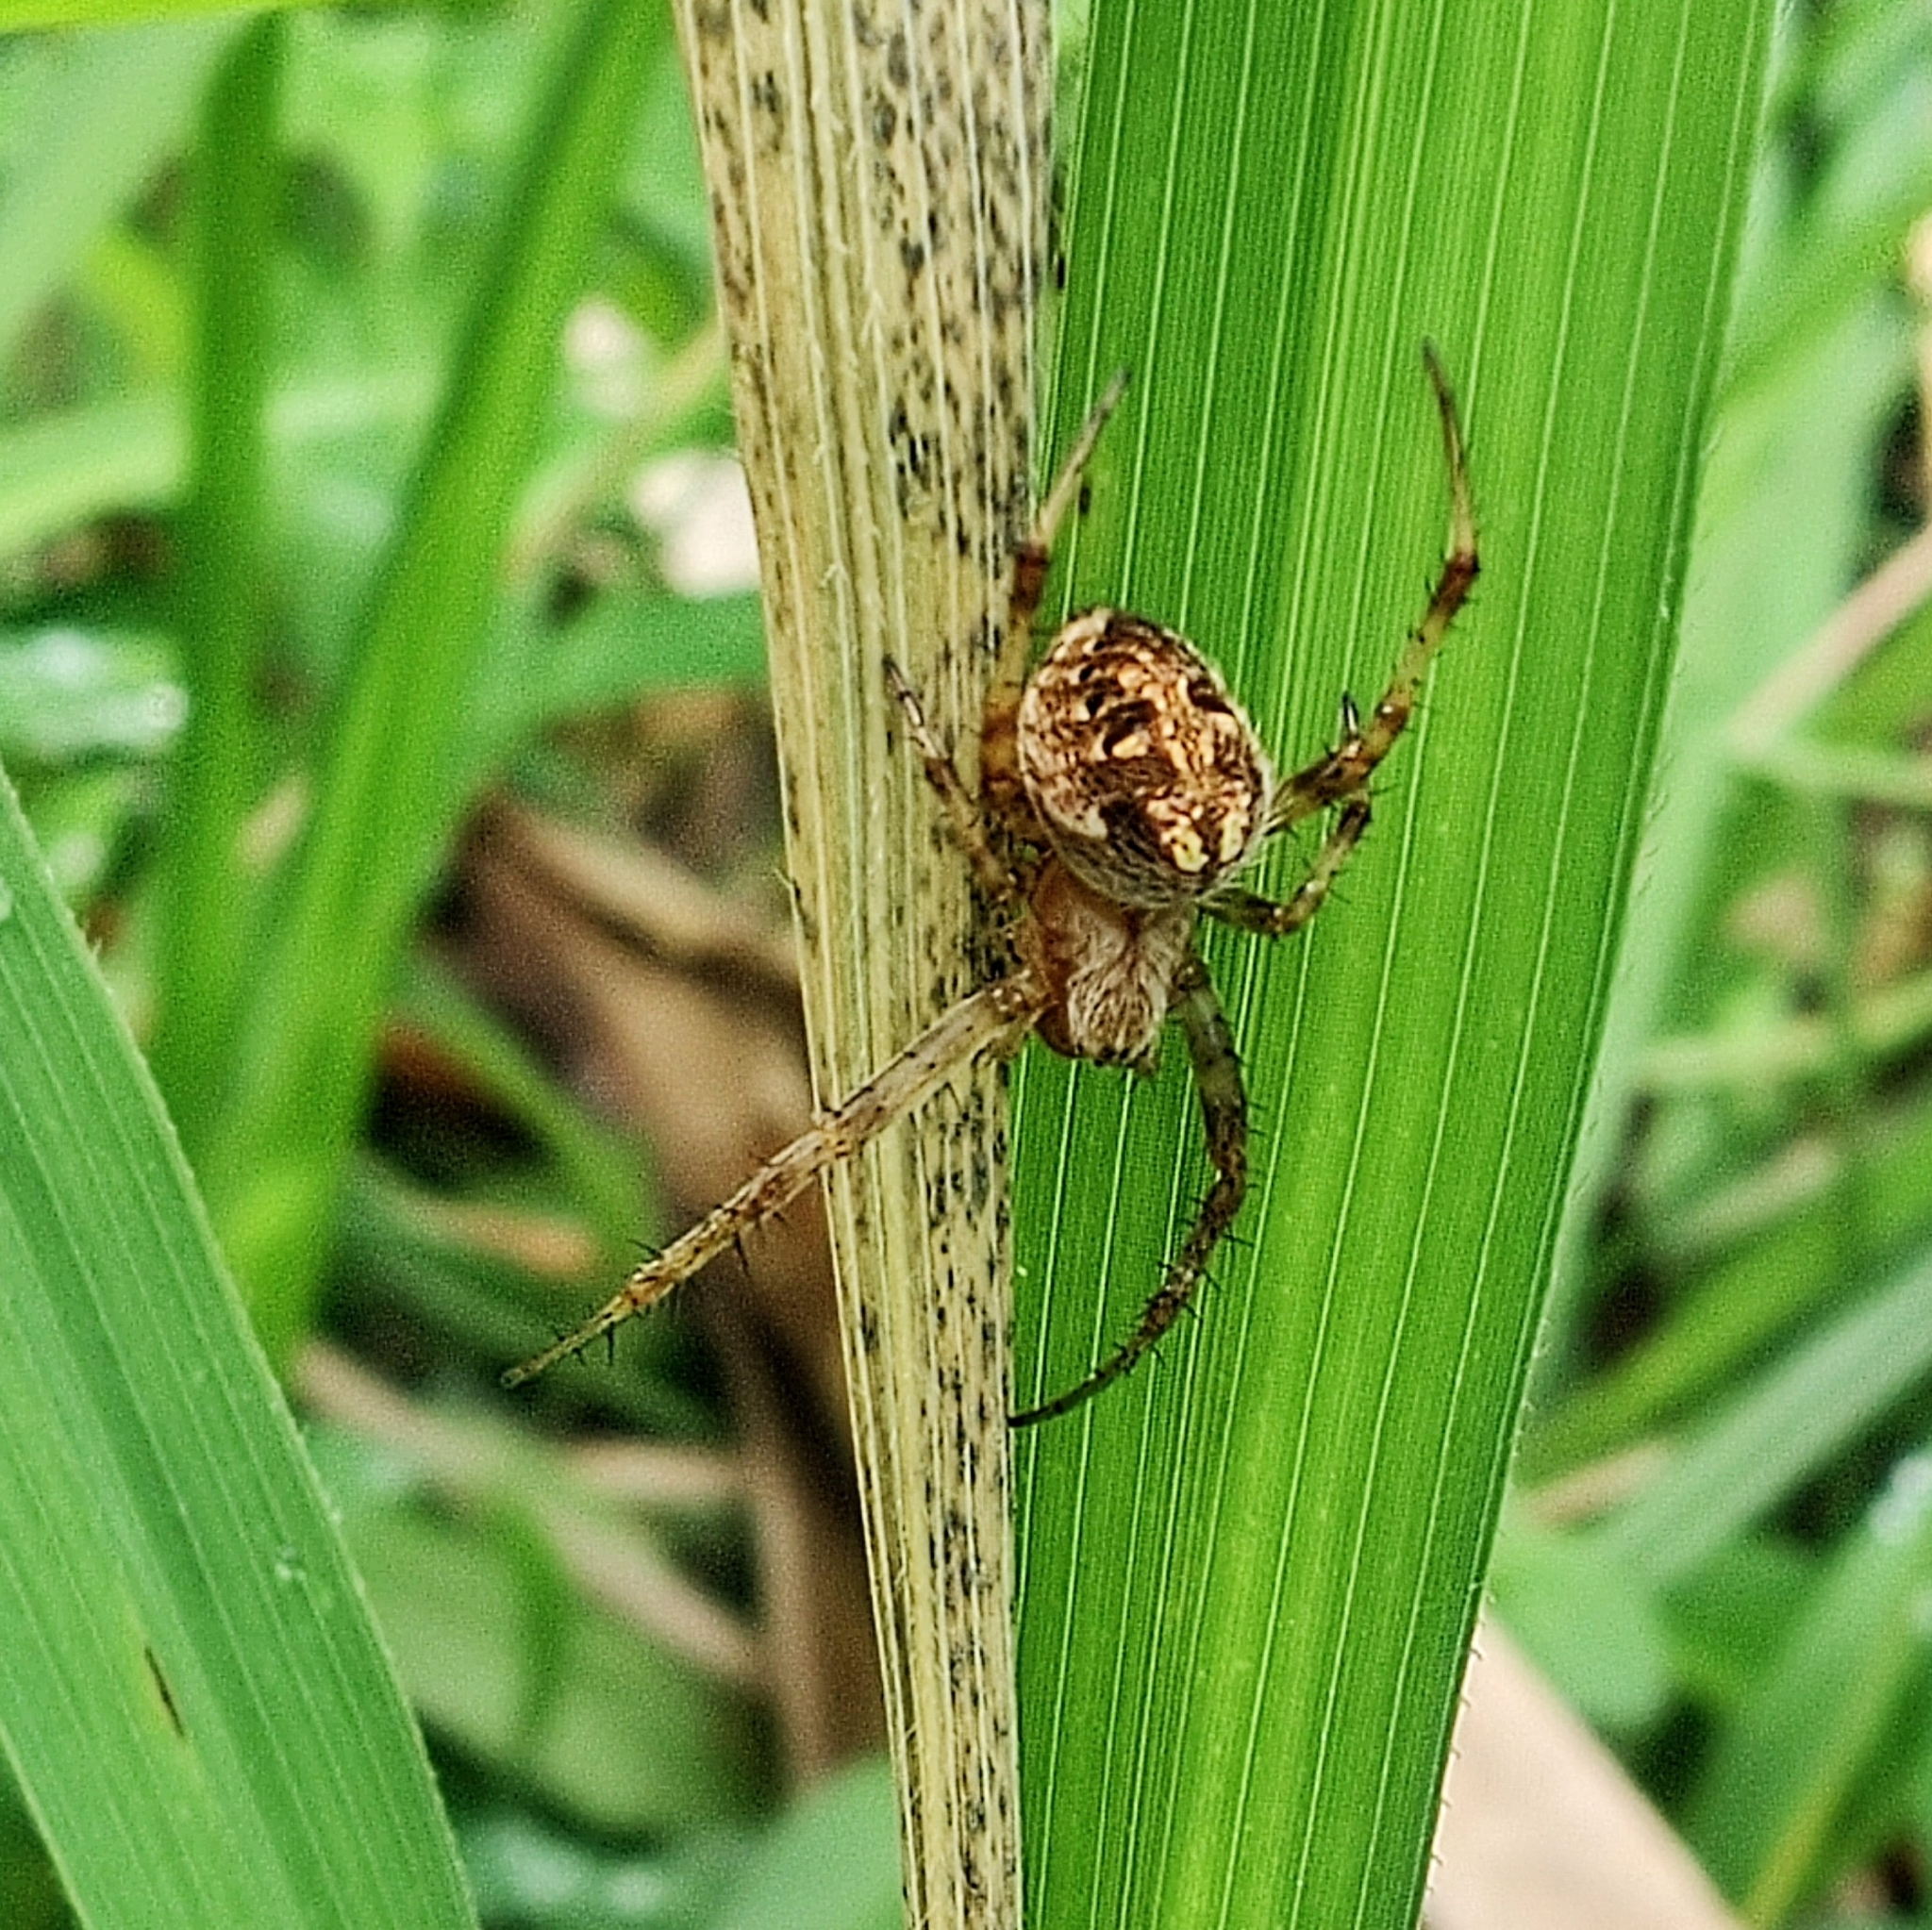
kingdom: Animalia
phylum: Arthropoda
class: Arachnida
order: Araneae
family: Araneidae
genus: Neoscona
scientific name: Neoscona arabesca
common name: Orb weavers
